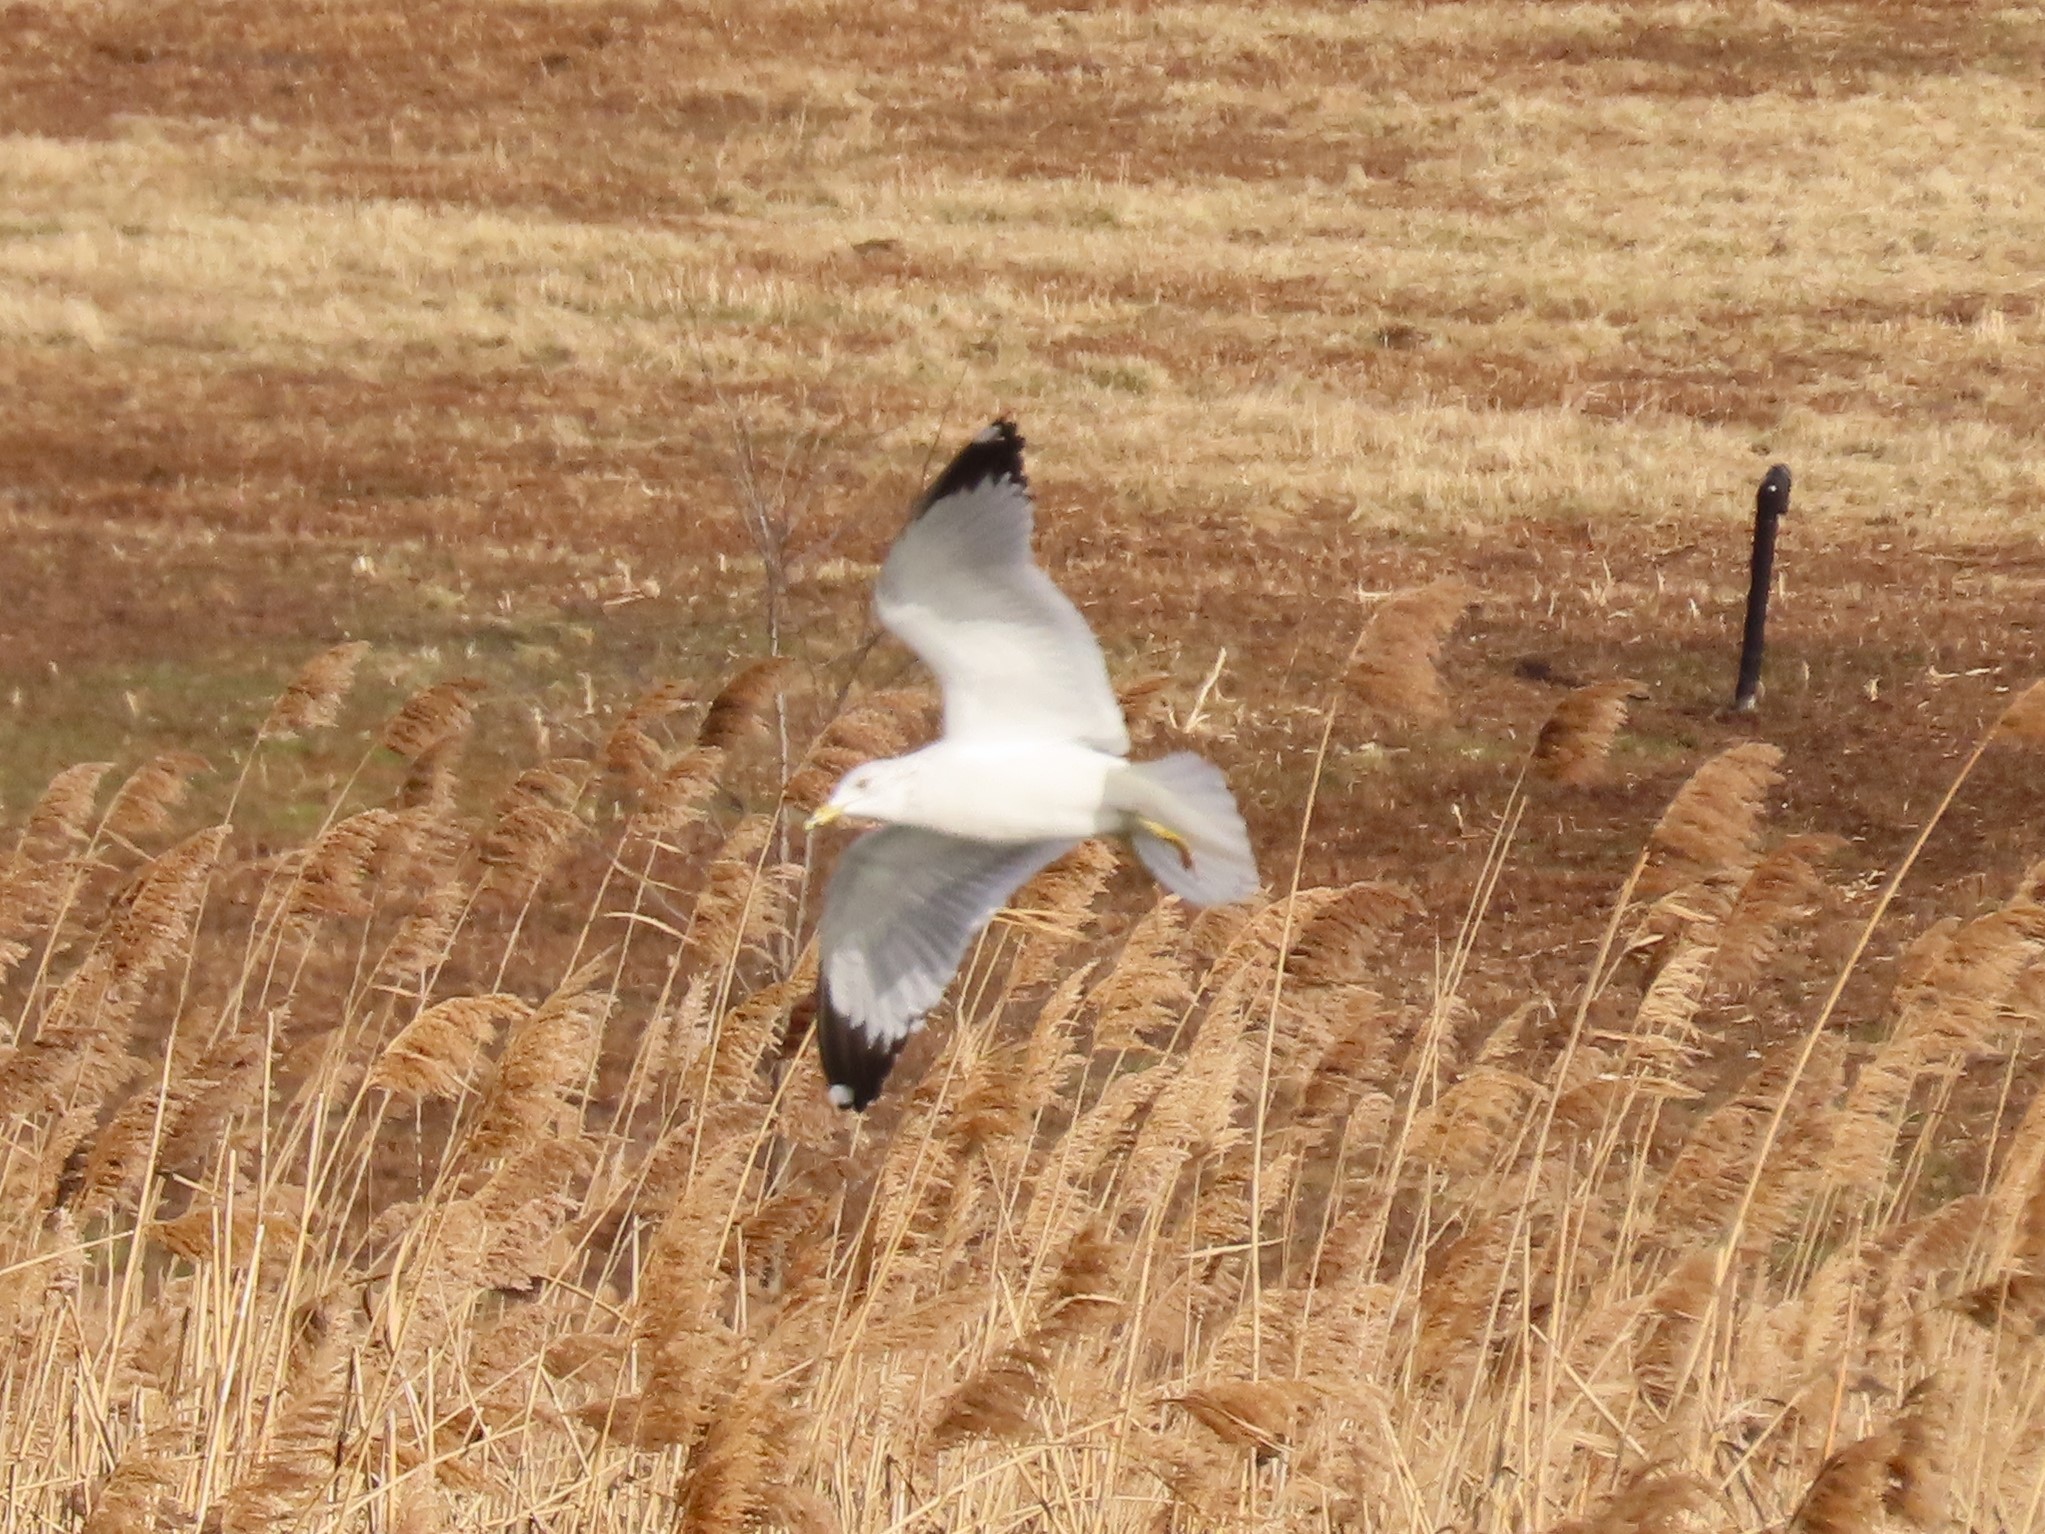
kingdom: Animalia
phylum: Chordata
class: Aves
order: Charadriiformes
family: Laridae
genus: Larus
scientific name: Larus delawarensis
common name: Ring-billed gull
